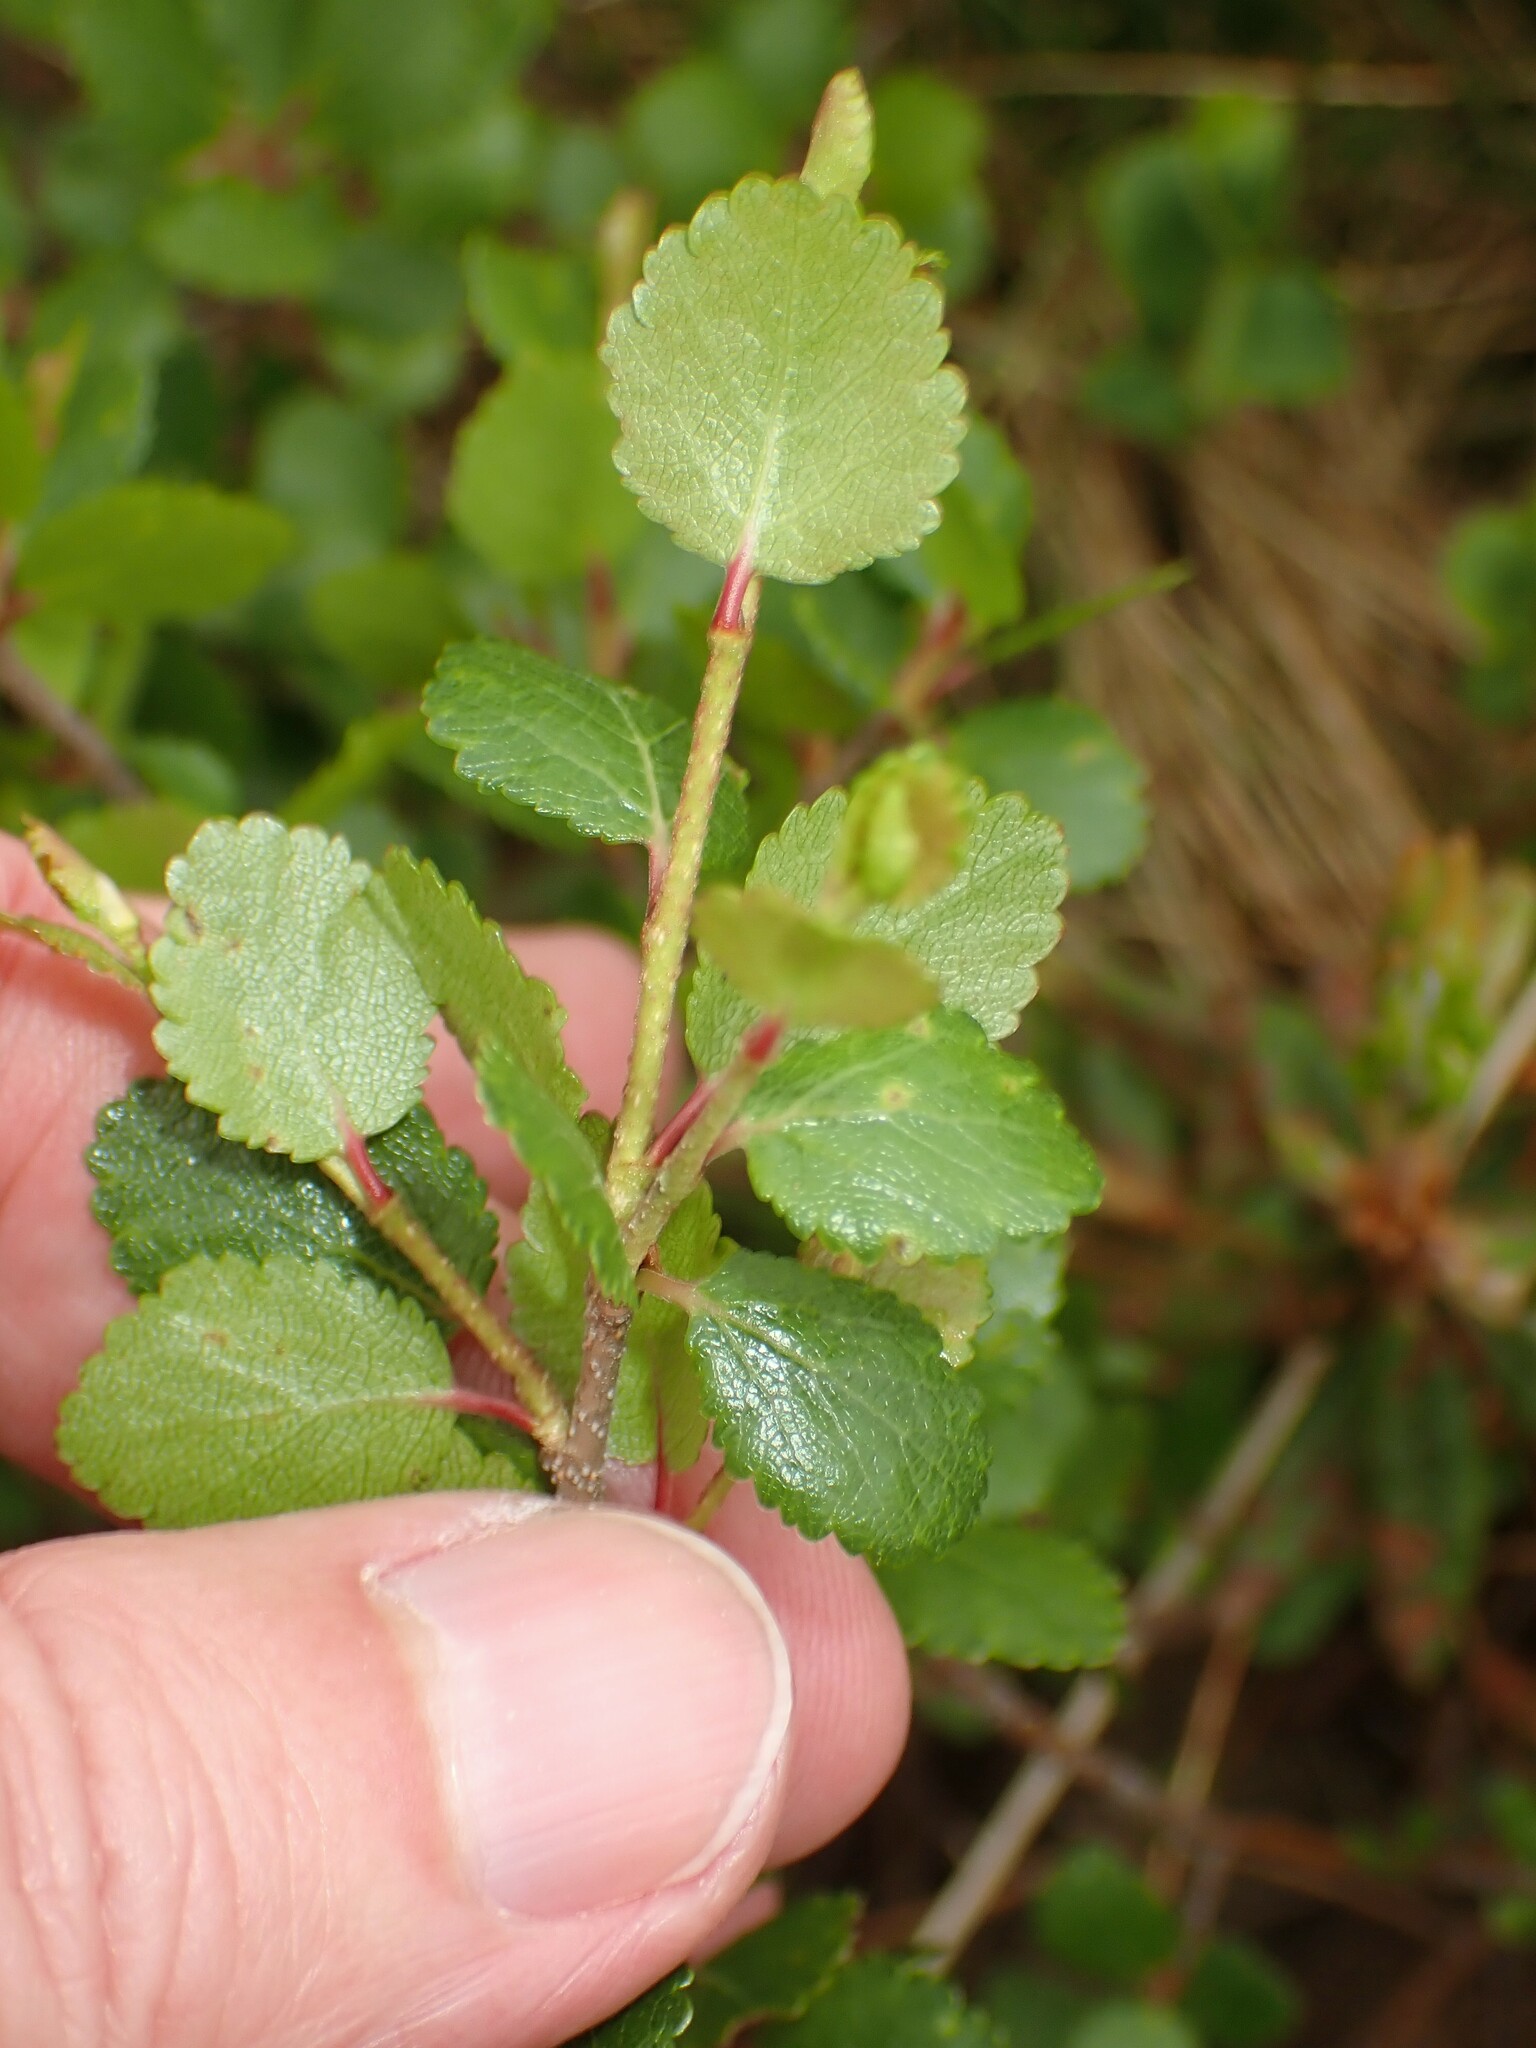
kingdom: Plantae
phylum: Tracheophyta
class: Magnoliopsida
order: Fagales
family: Betulaceae
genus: Betula
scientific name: Betula glandulosa
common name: Dwarf birch
